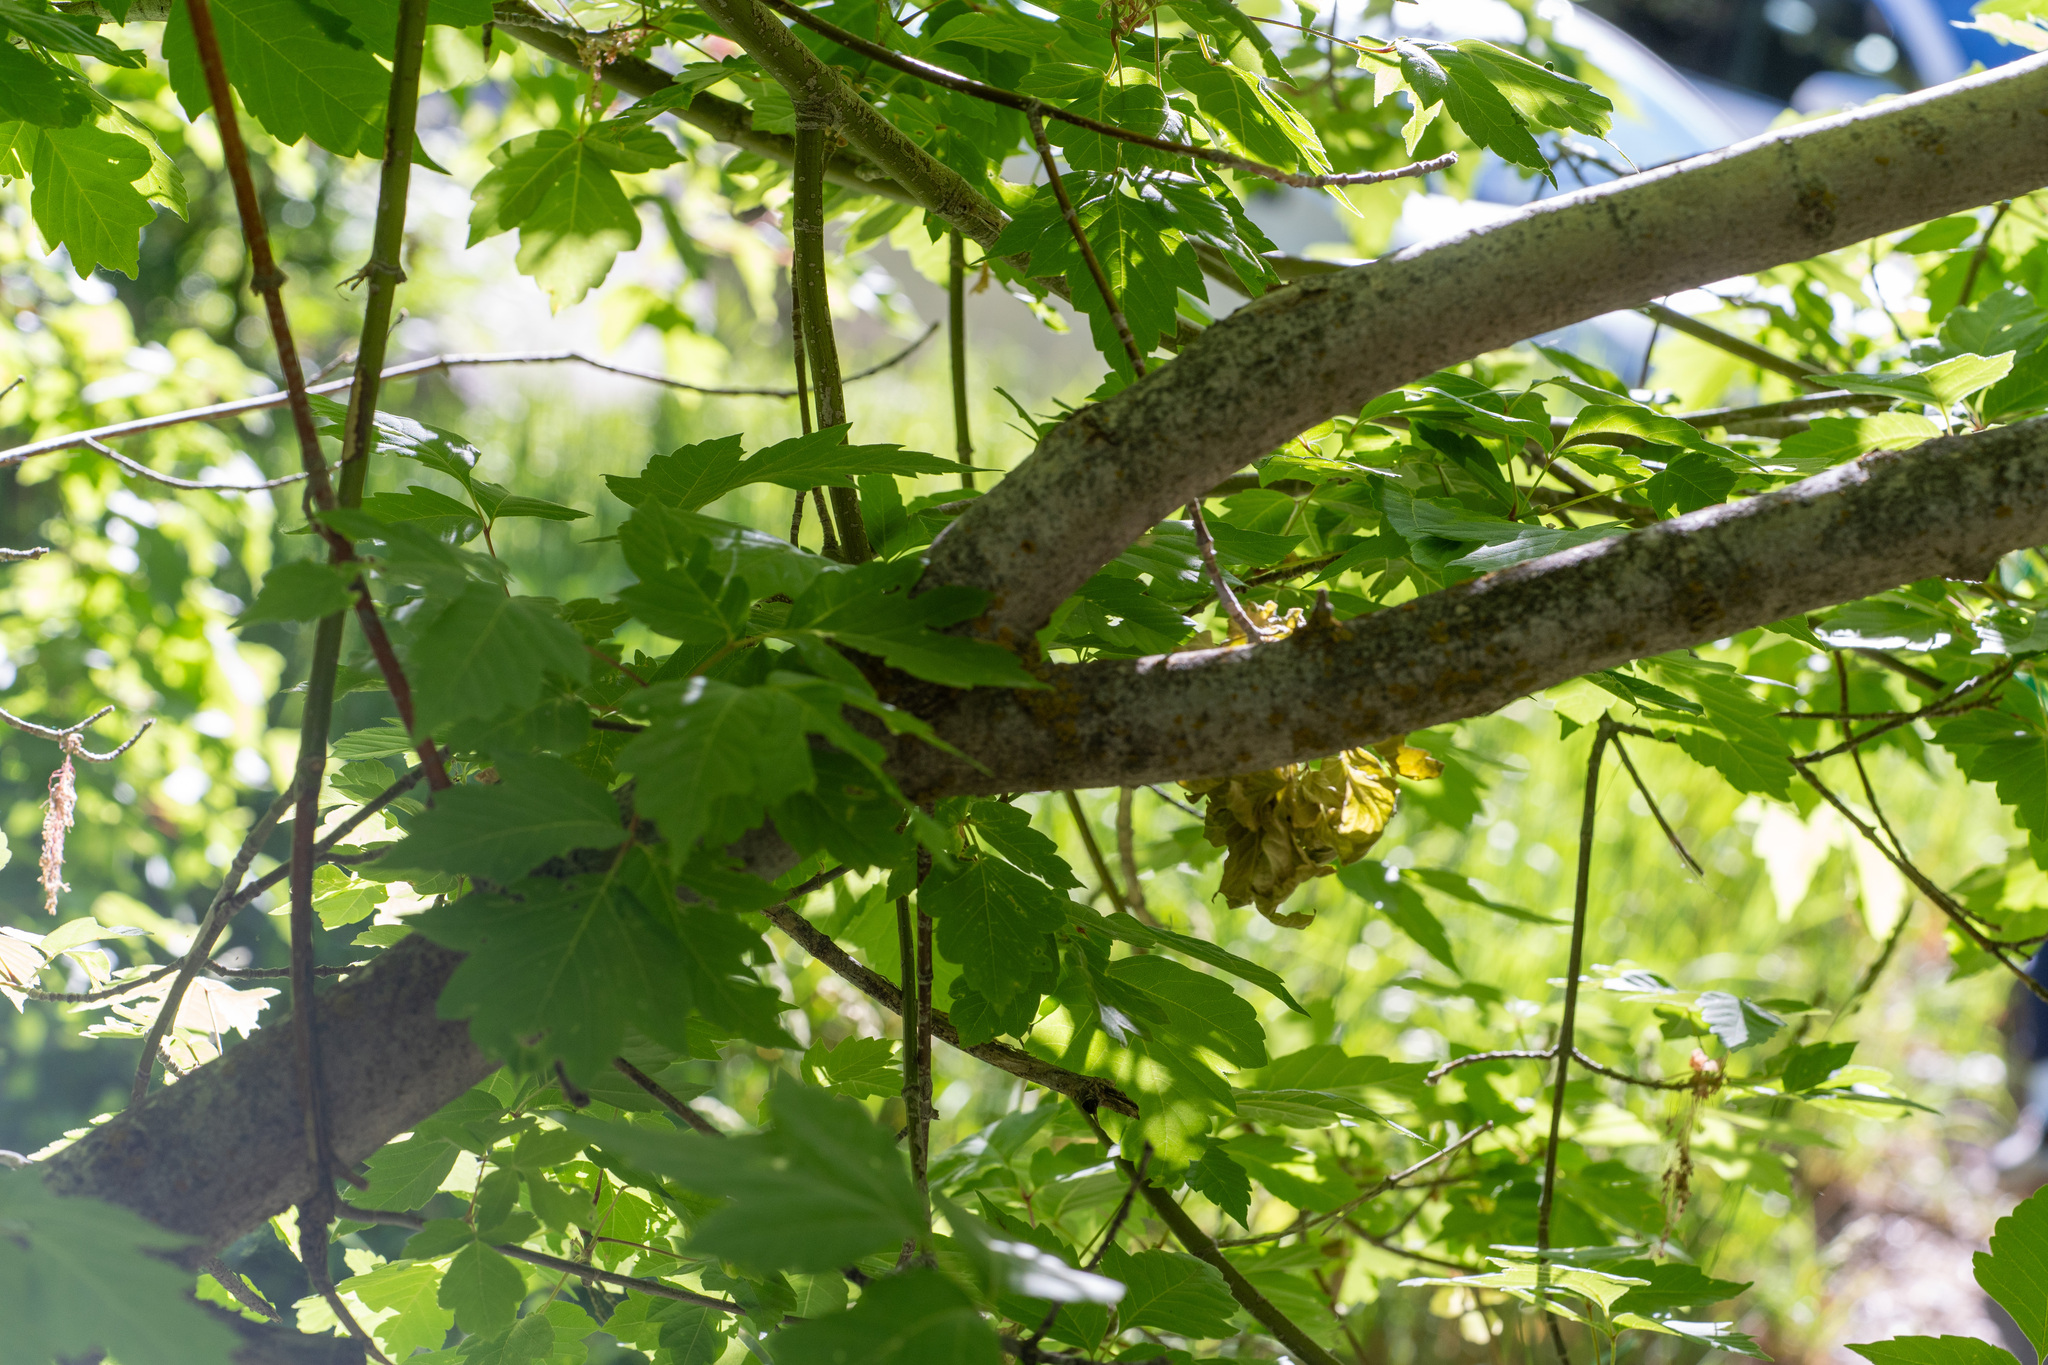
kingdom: Plantae
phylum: Tracheophyta
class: Magnoliopsida
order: Sapindales
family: Sapindaceae
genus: Acer
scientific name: Acer negundo
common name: Ashleaf maple
